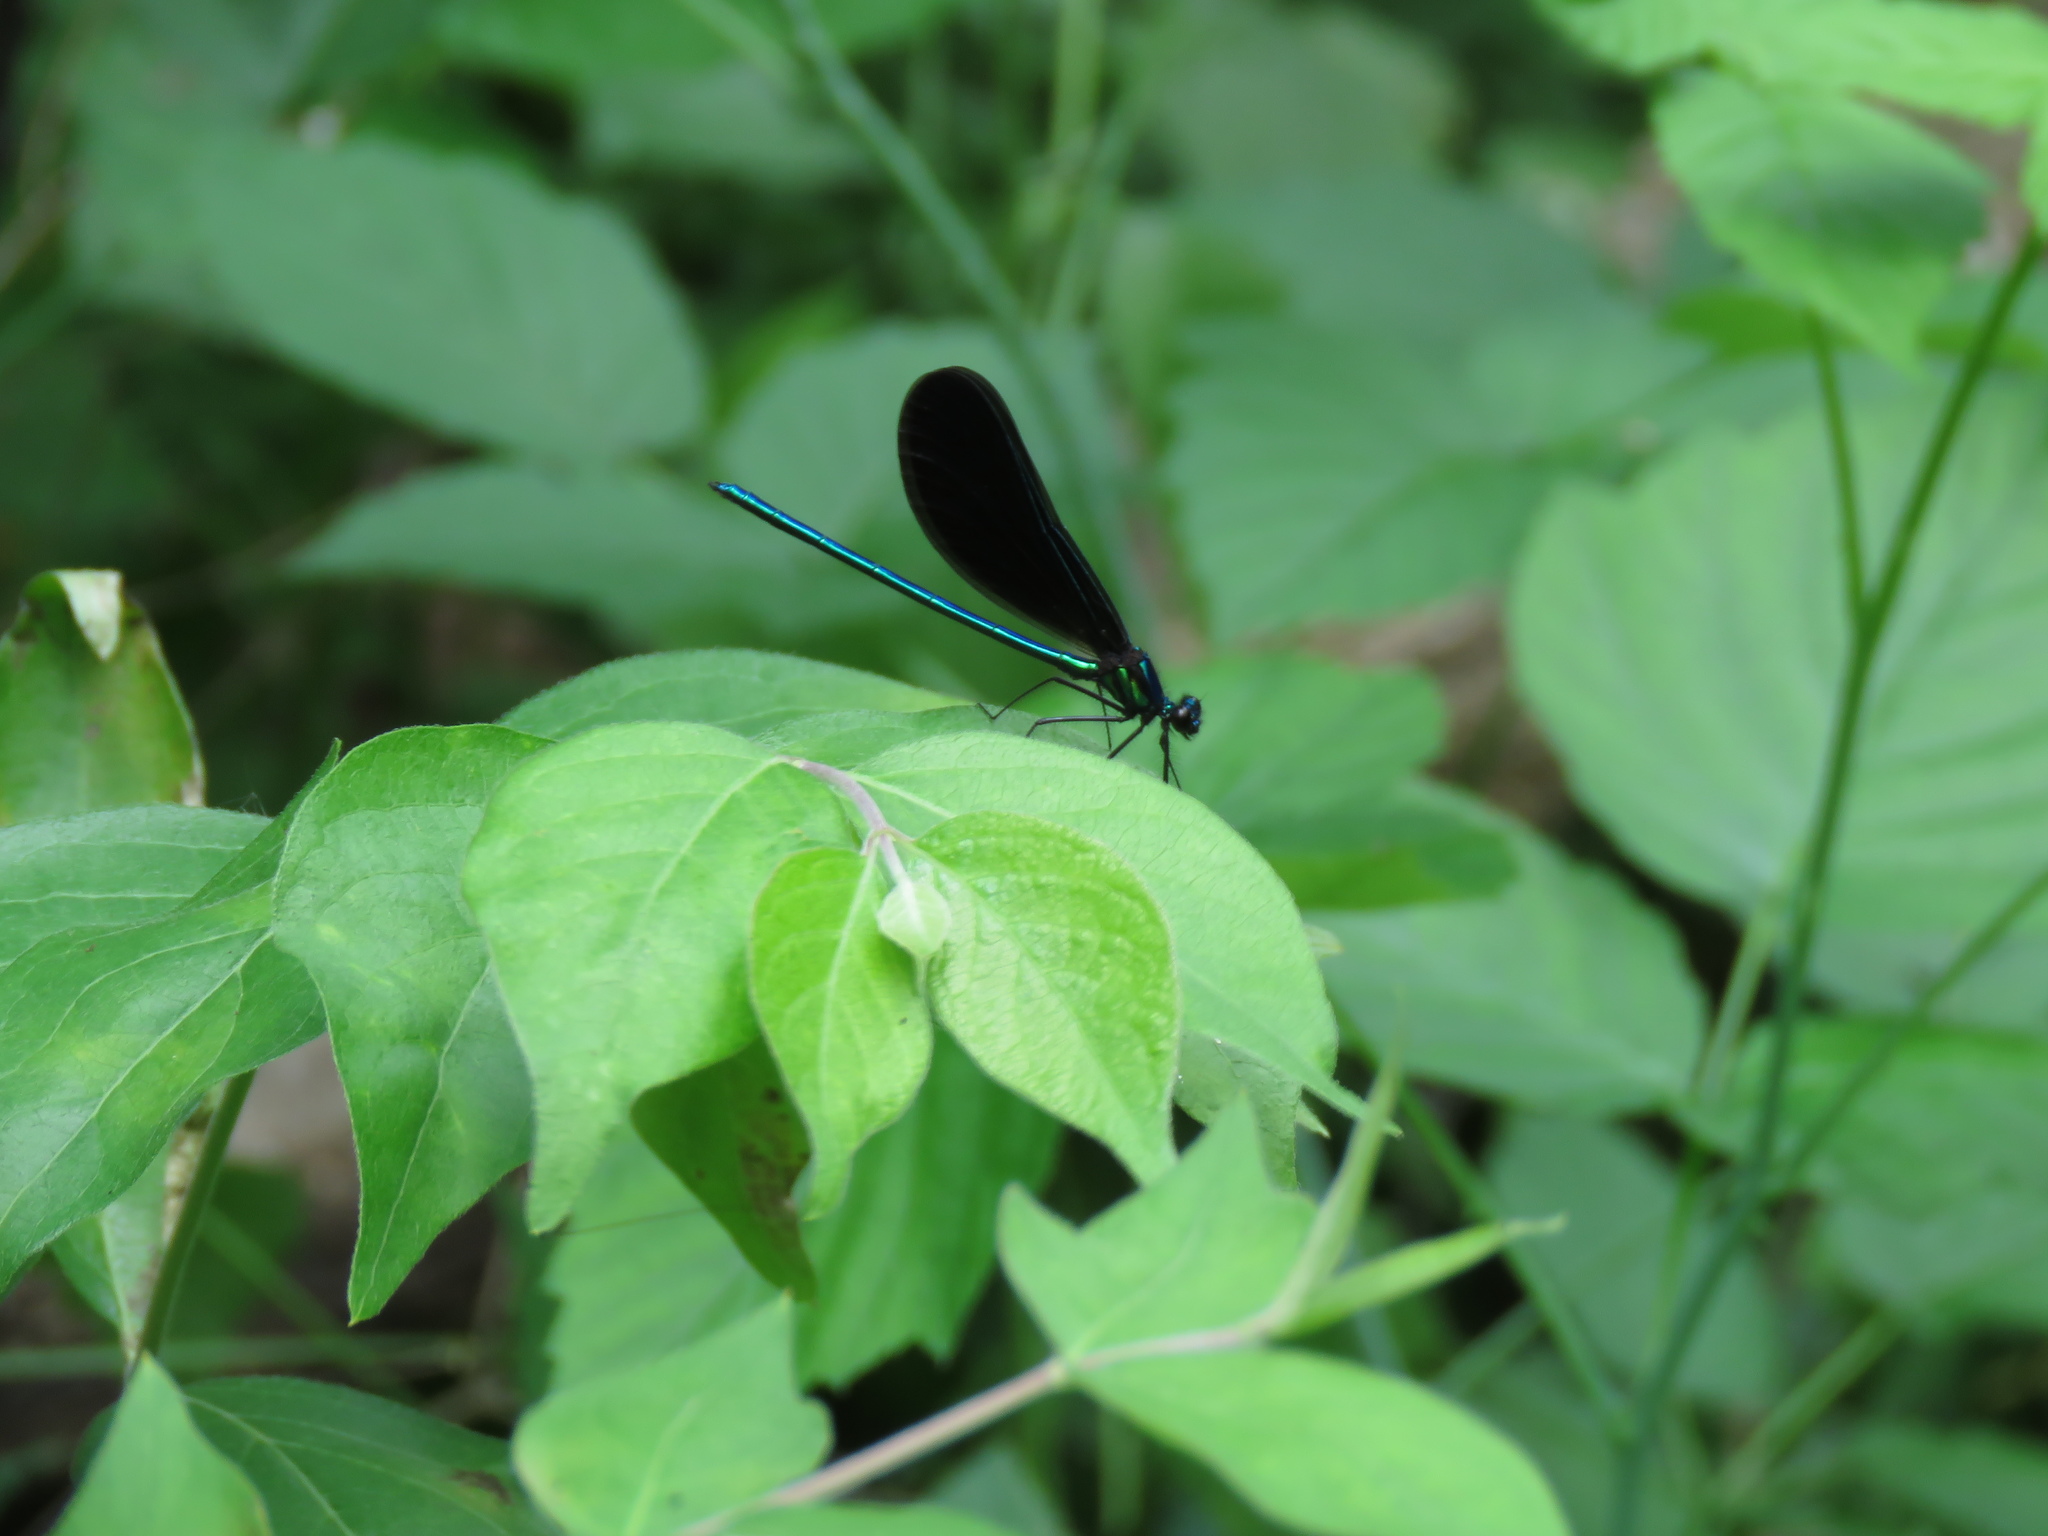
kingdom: Animalia
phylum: Arthropoda
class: Insecta
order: Odonata
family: Calopterygidae
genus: Calopteryx
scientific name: Calopteryx maculata
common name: Ebony jewelwing
